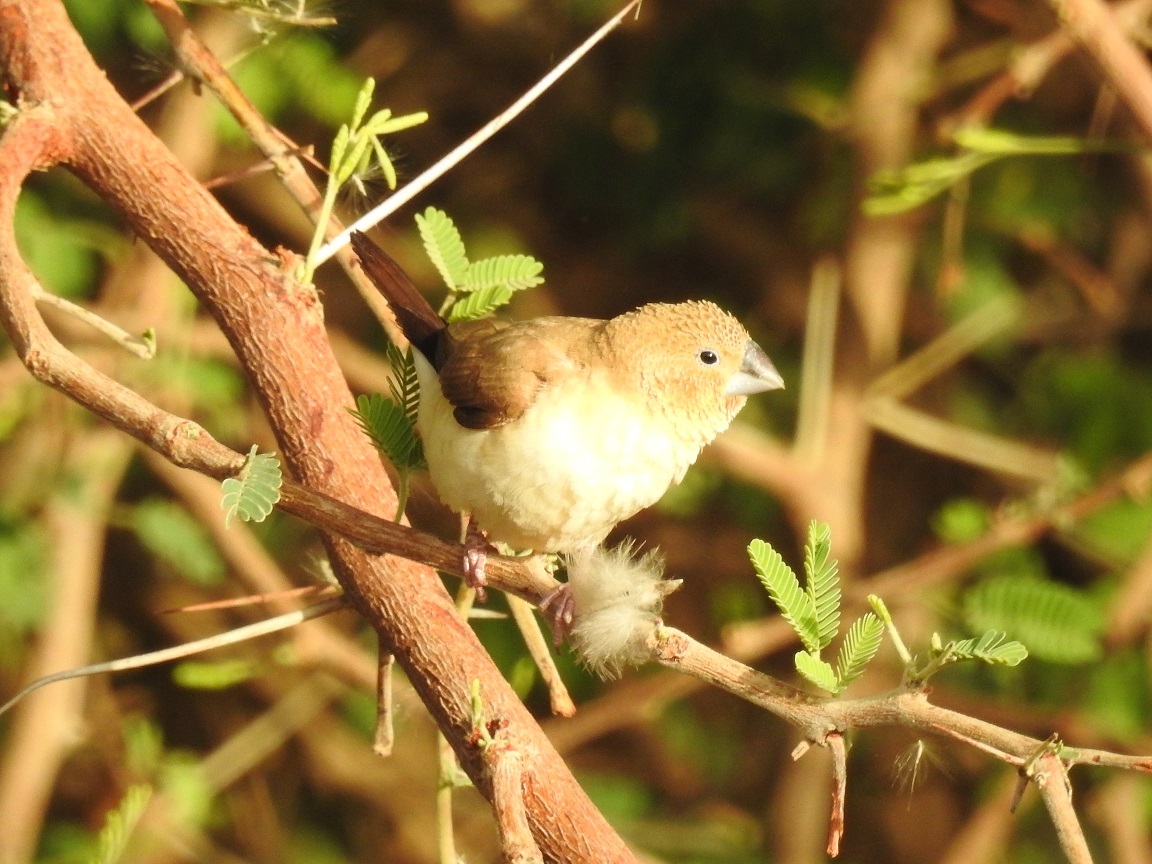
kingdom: Animalia
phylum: Chordata
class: Aves
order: Passeriformes
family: Estrildidae
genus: Euodice
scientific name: Euodice cantans
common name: African silverbill
